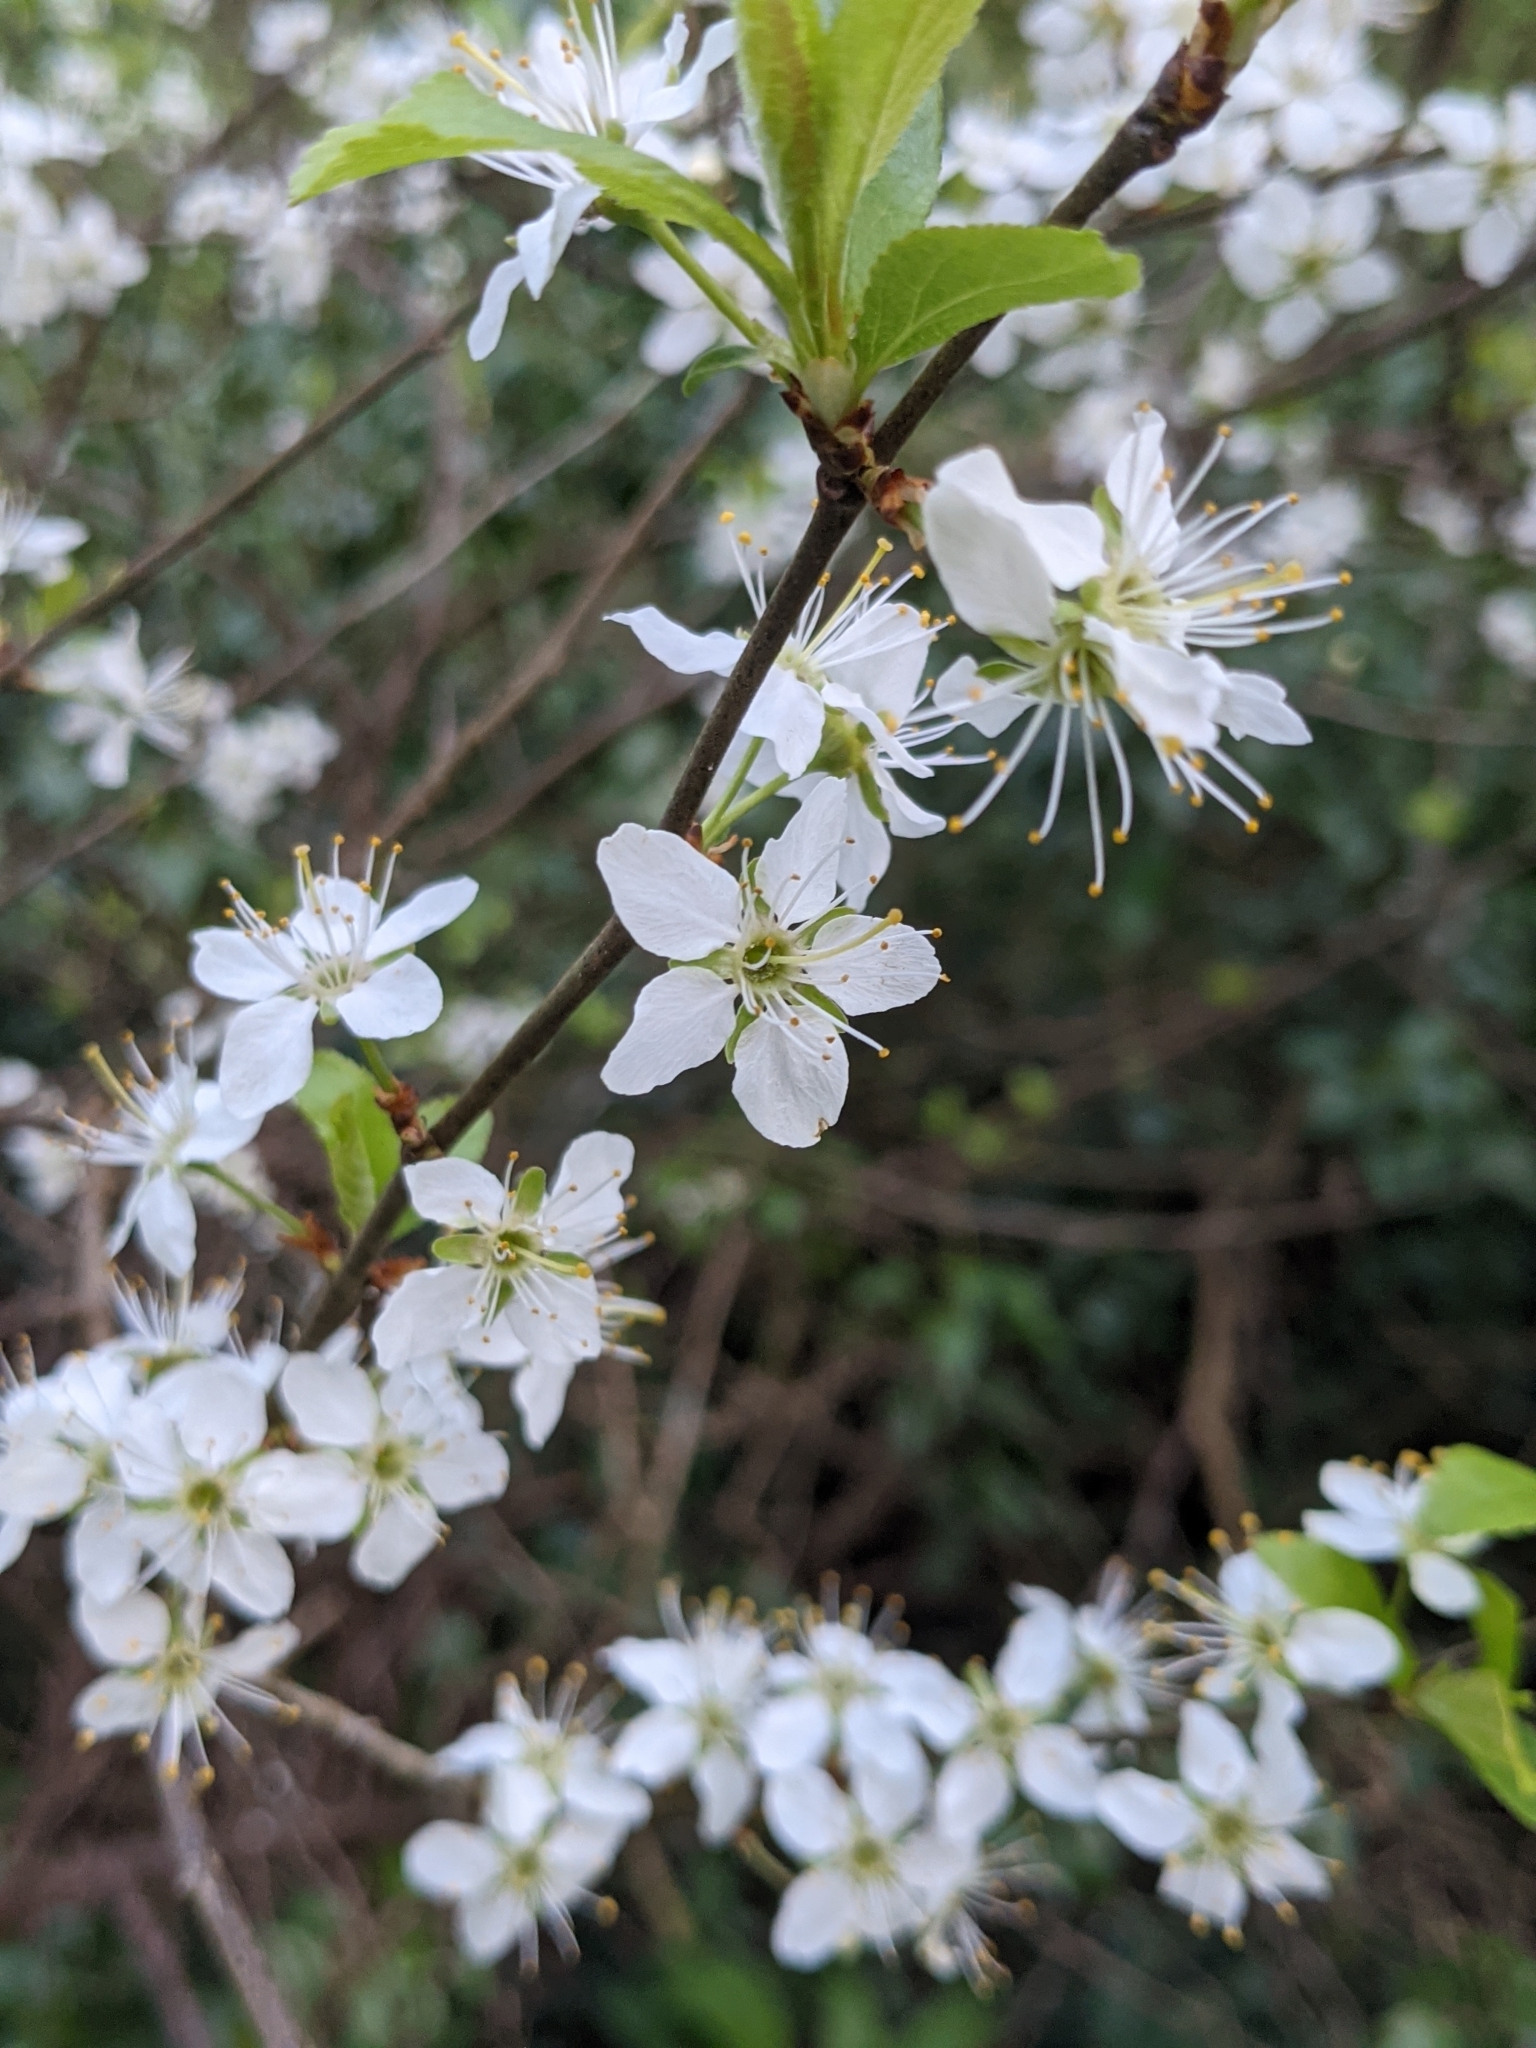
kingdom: Plantae
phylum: Tracheophyta
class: Magnoliopsida
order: Rosales
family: Rosaceae
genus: Prunus
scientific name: Prunus spinosa
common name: Blackthorn
